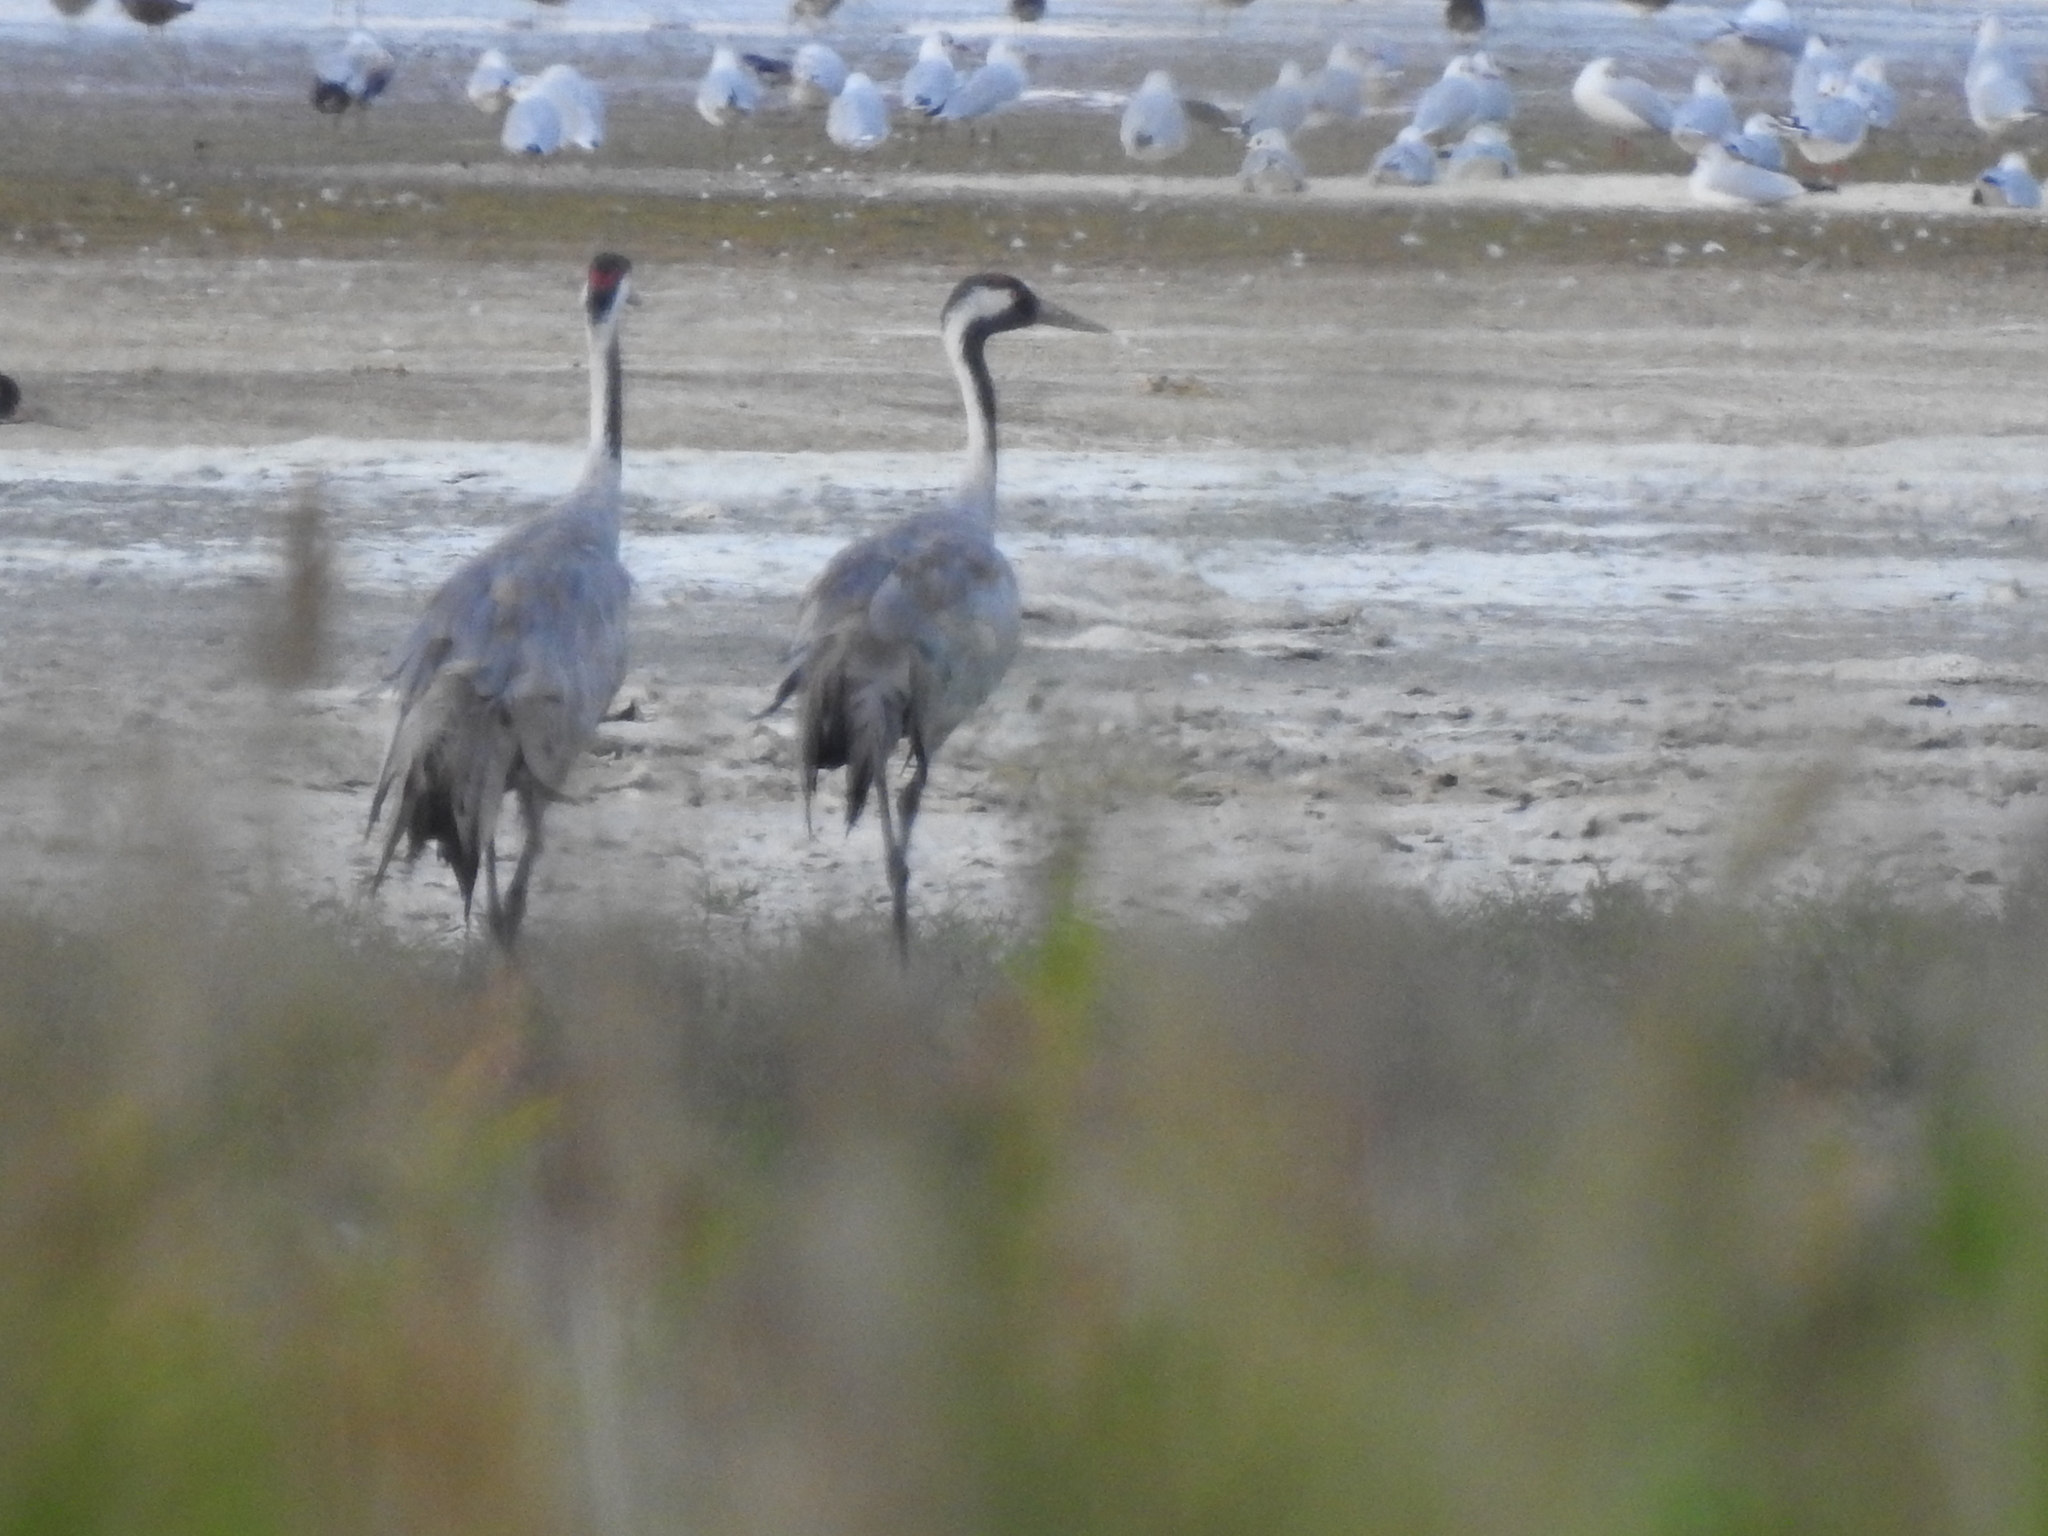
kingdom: Animalia
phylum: Chordata
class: Aves
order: Gruiformes
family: Gruidae
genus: Grus
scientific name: Grus grus
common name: Common crane
